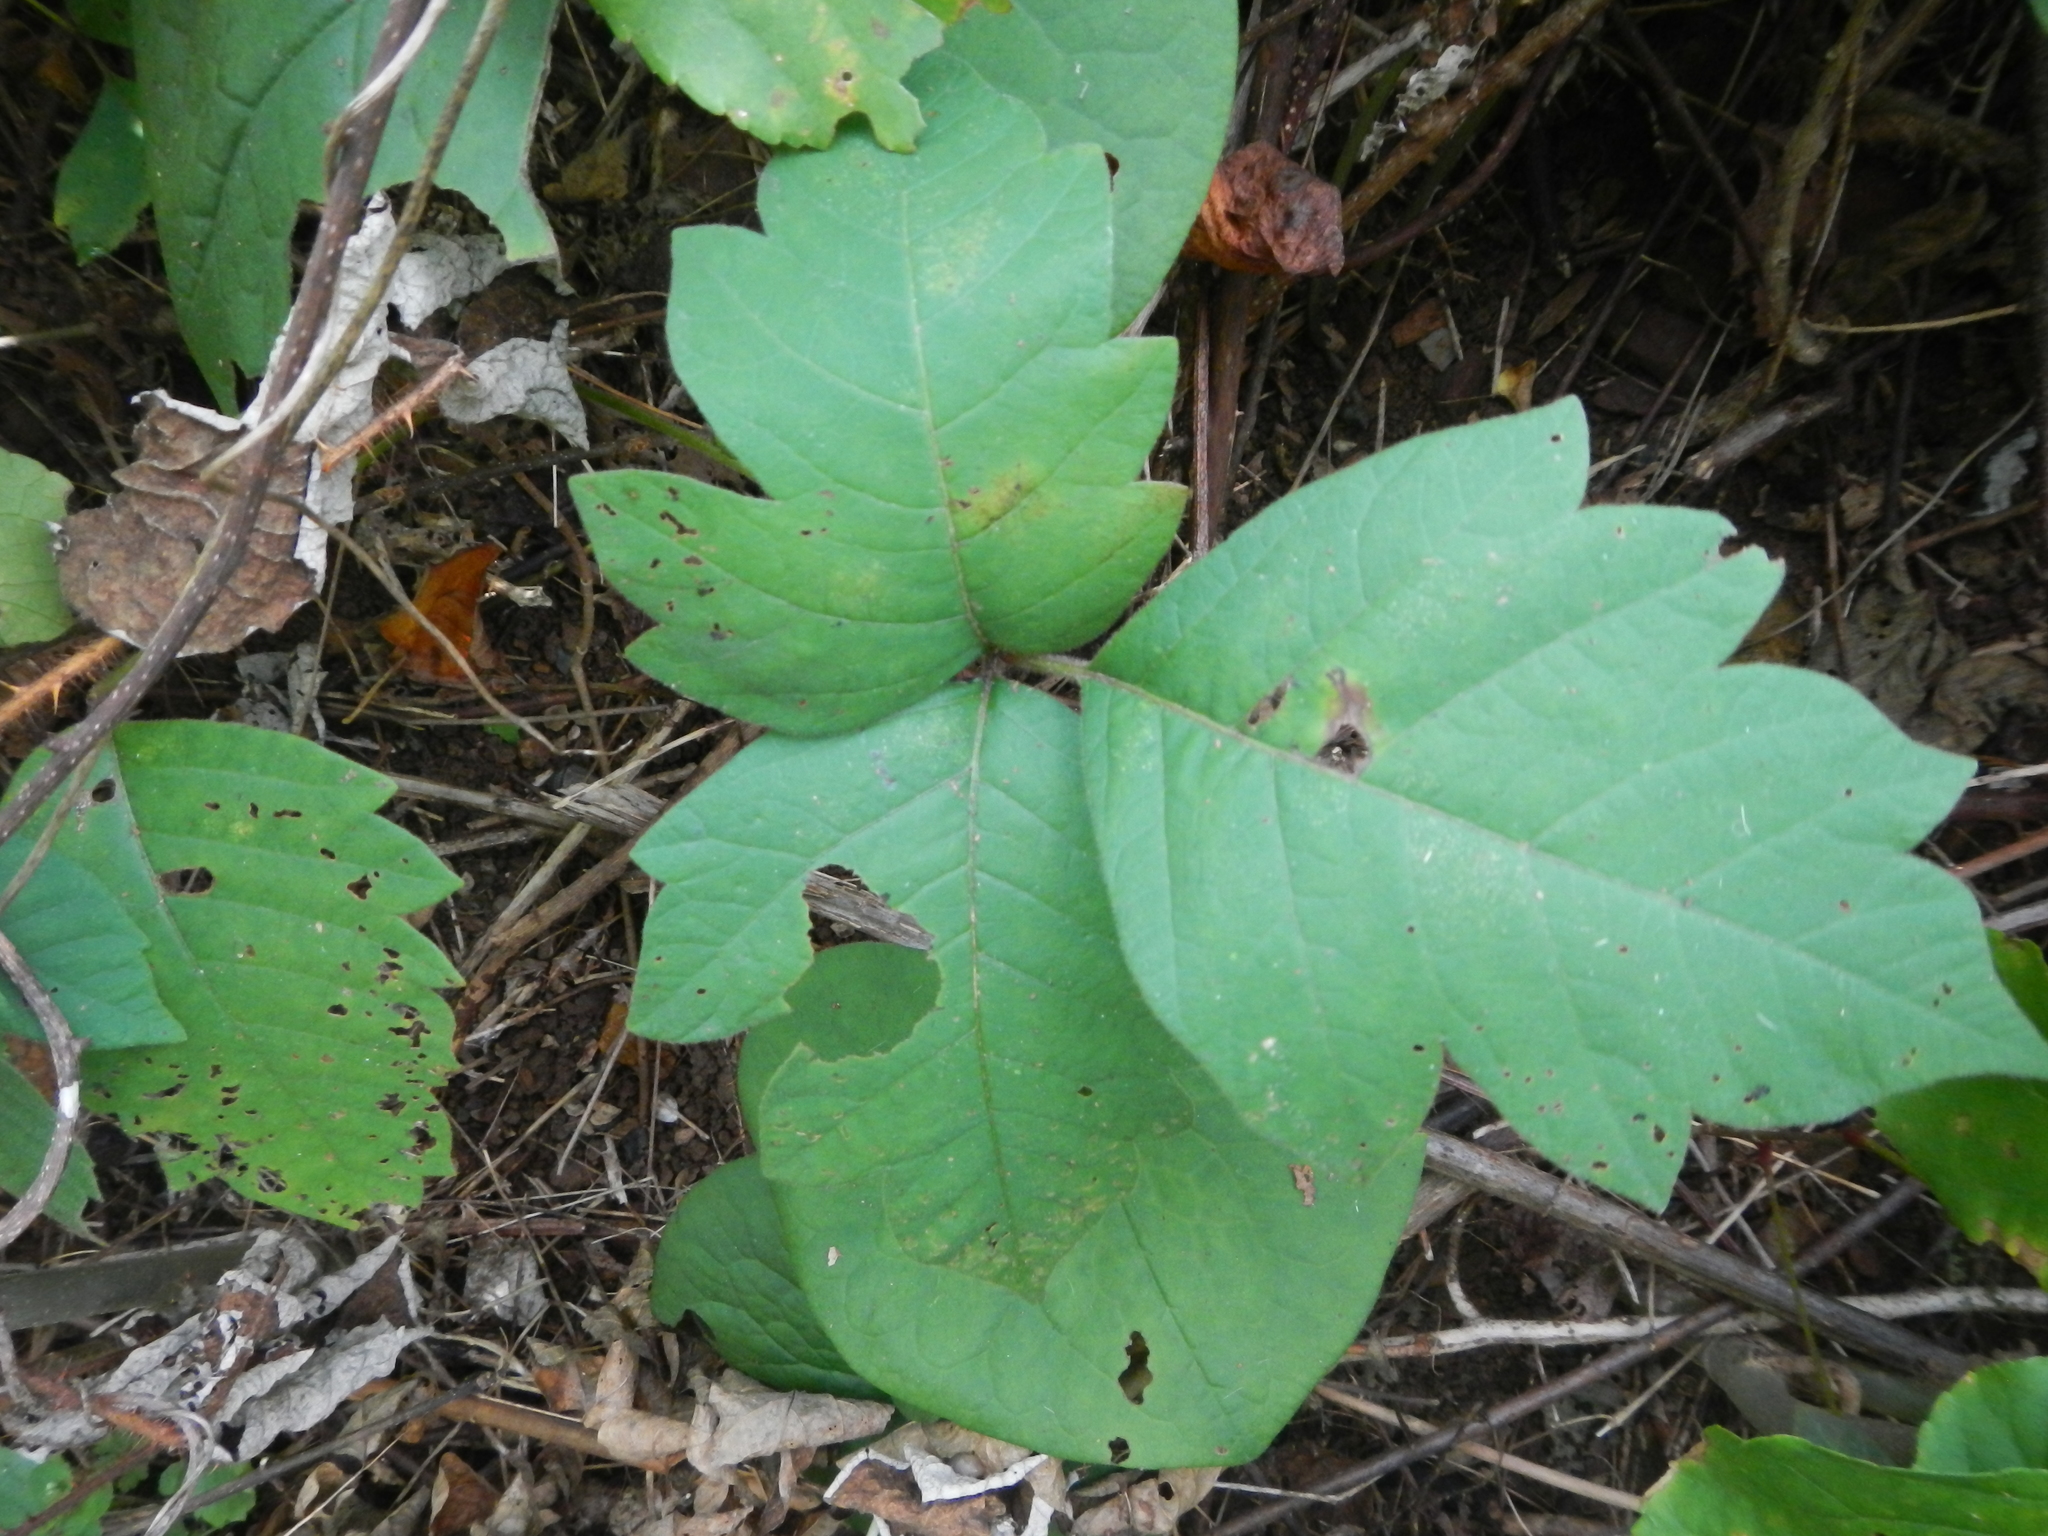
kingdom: Plantae
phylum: Tracheophyta
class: Magnoliopsida
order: Sapindales
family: Anacardiaceae
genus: Toxicodendron
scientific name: Toxicodendron radicans
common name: Poison ivy
